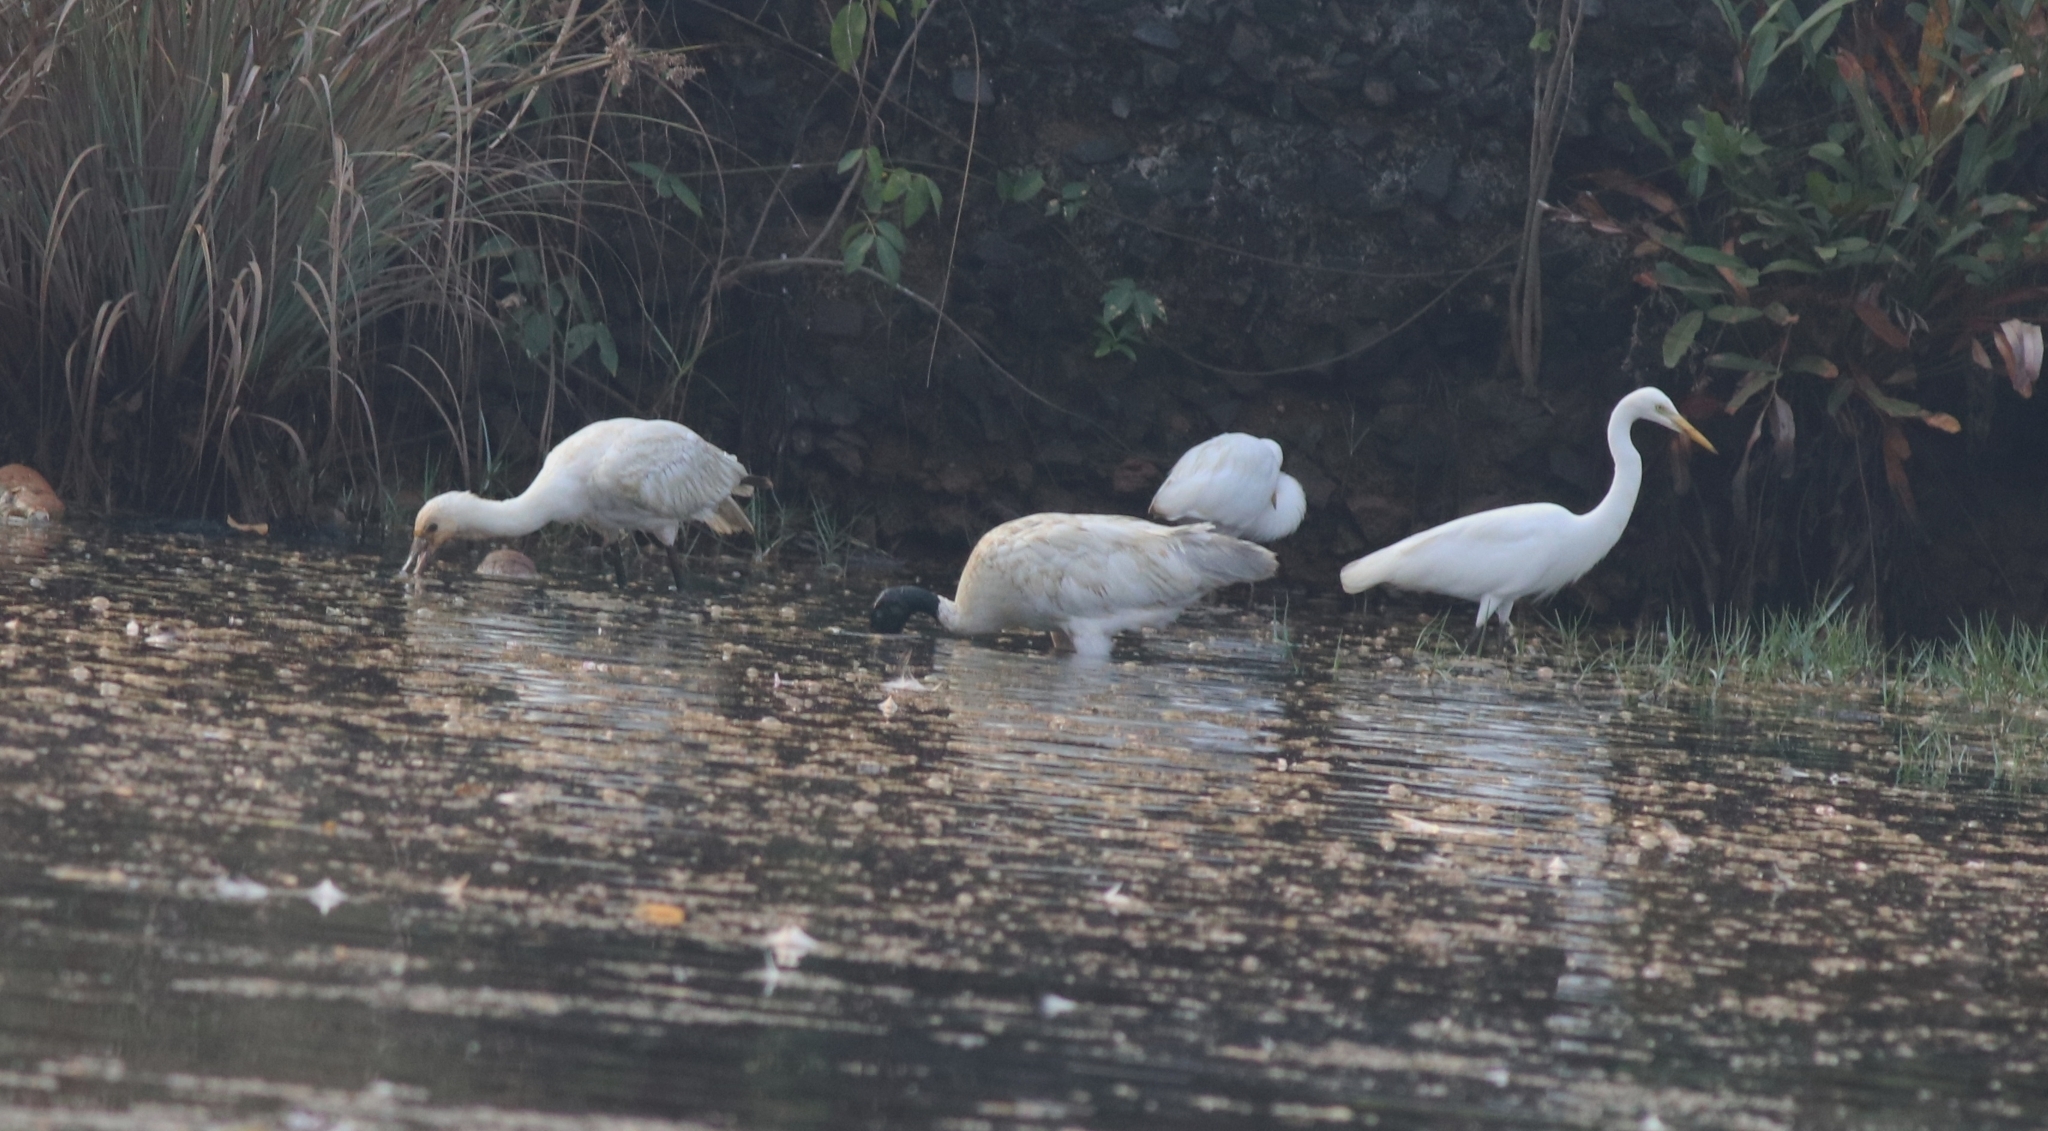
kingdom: Animalia
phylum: Chordata
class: Aves
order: Pelecaniformes
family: Ardeidae
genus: Egretta
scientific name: Egretta intermedia
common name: Intermediate egret
